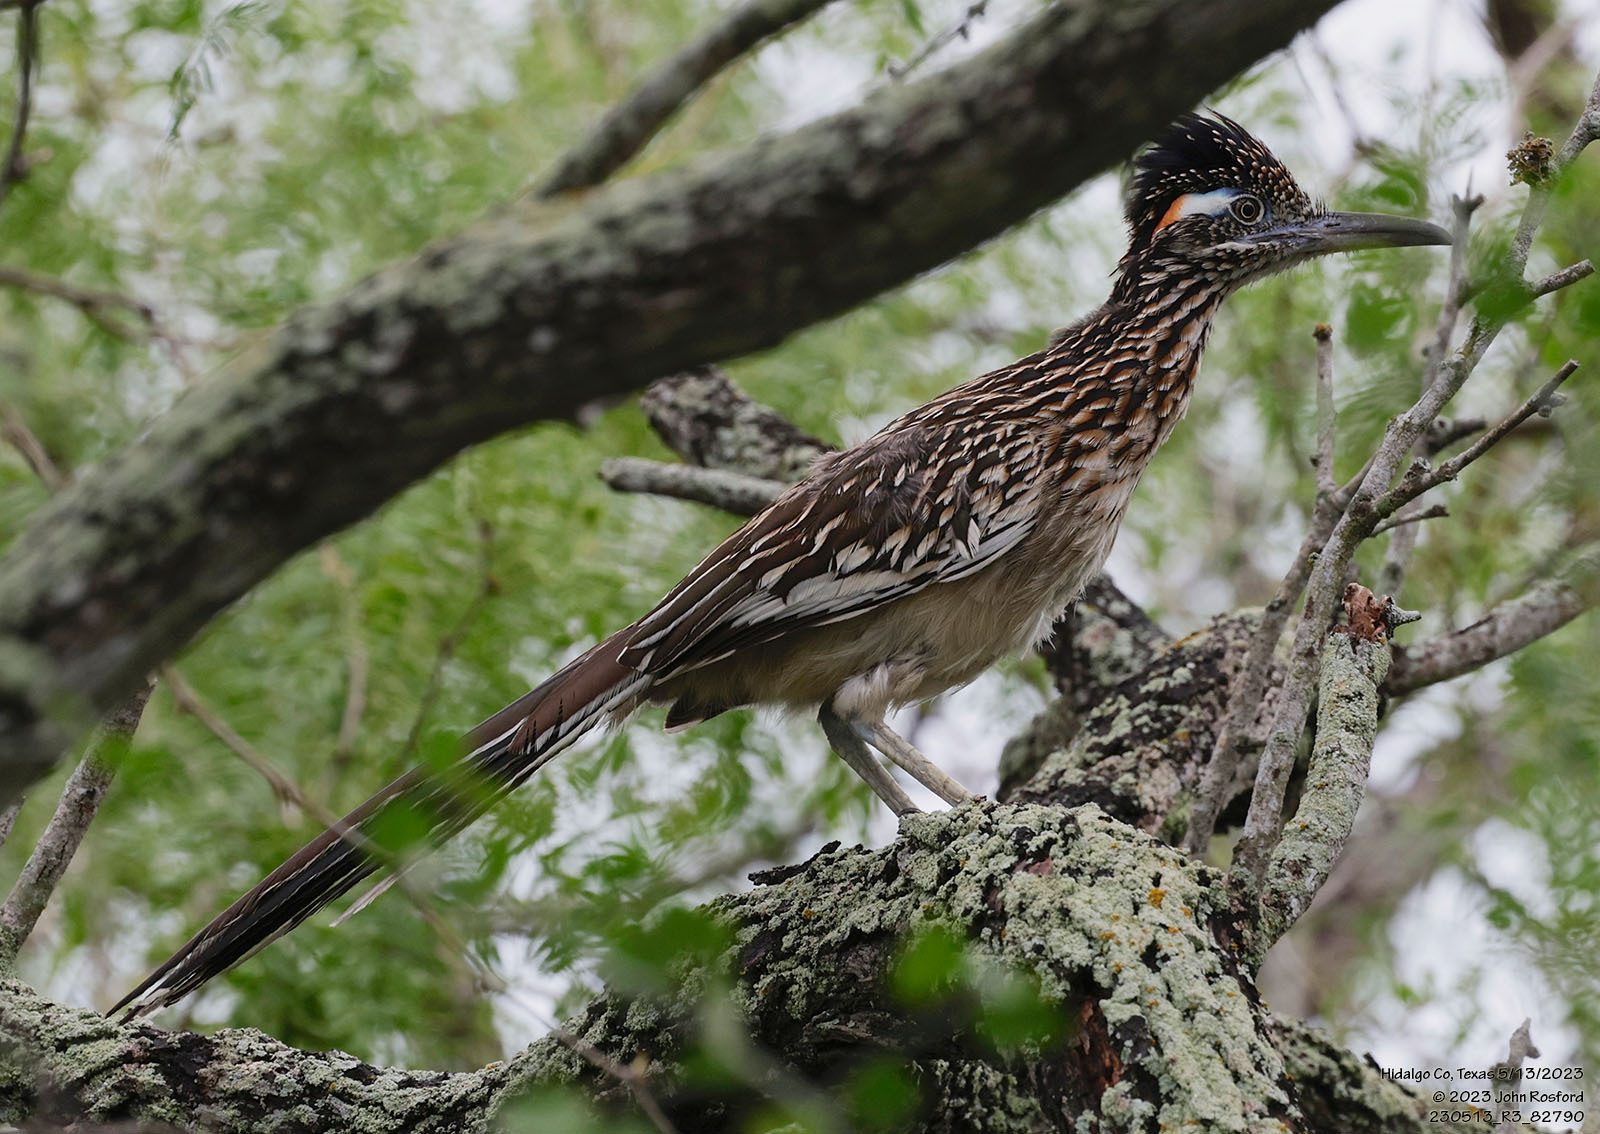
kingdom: Animalia
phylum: Chordata
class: Aves
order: Cuculiformes
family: Cuculidae
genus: Geococcyx
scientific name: Geococcyx californianus
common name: Greater roadrunner
